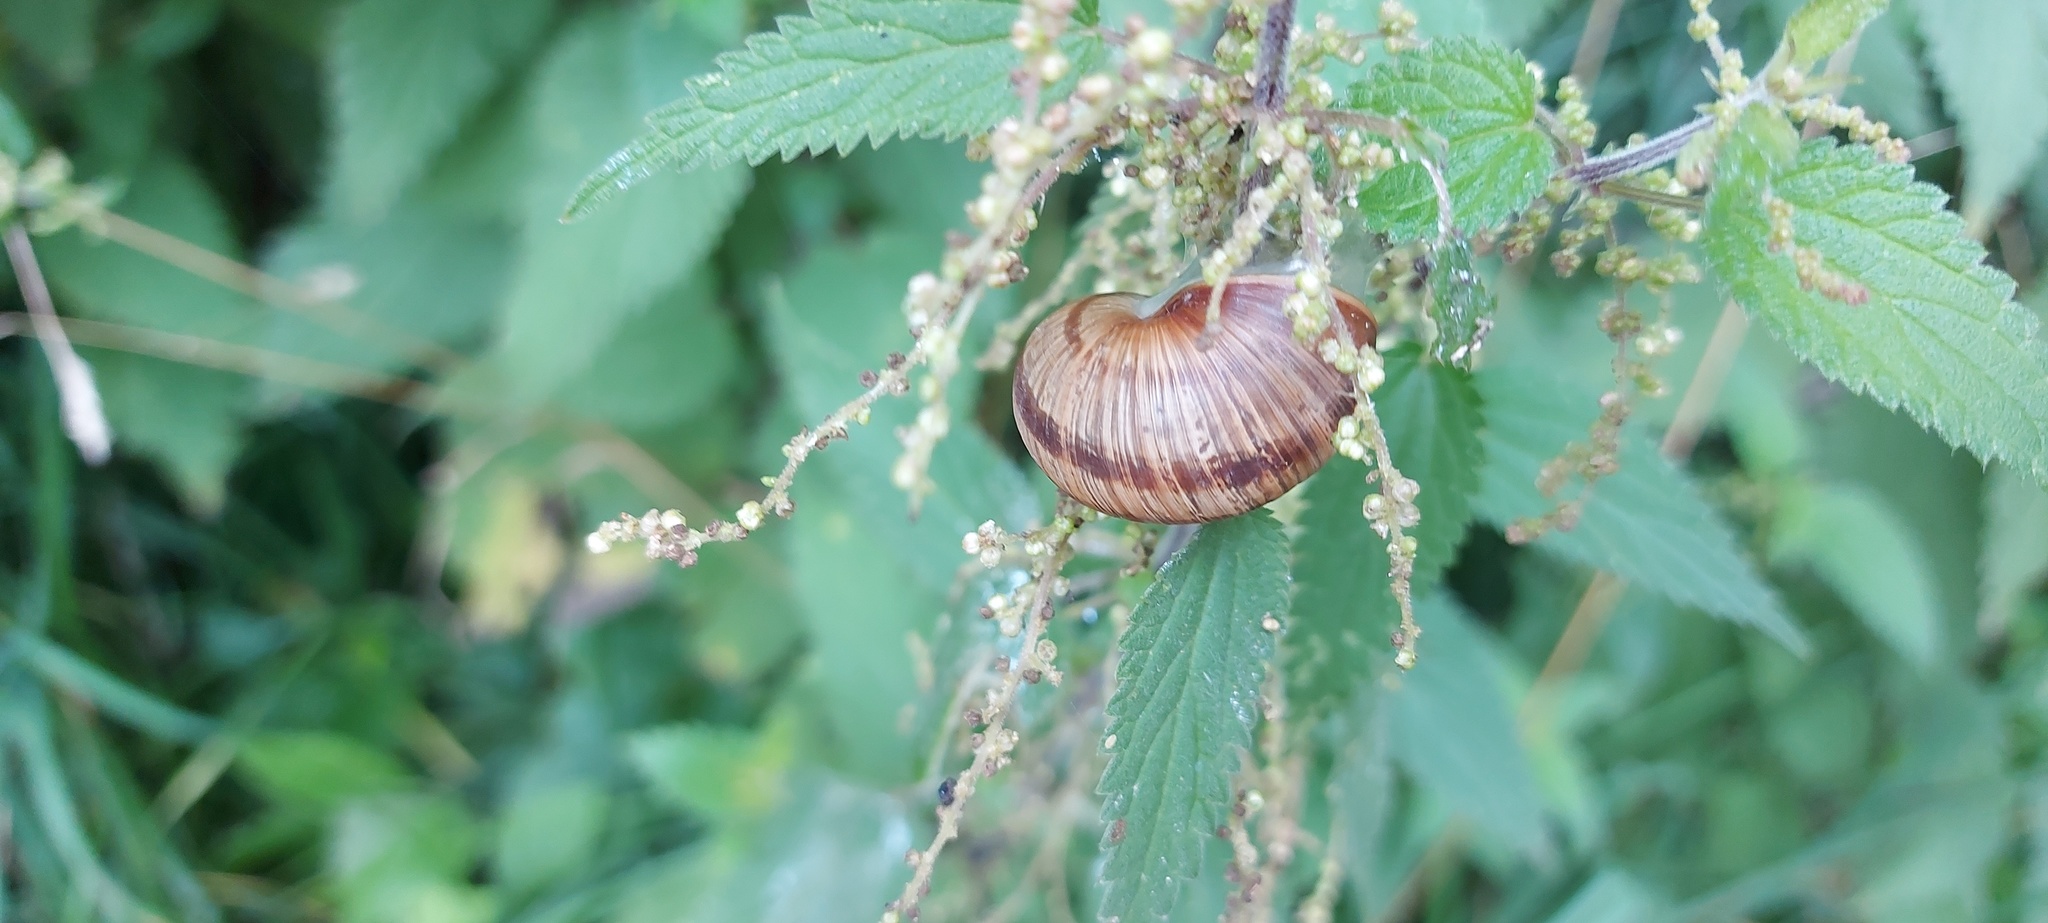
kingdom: Animalia
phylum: Mollusca
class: Gastropoda
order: Stylommatophora
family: Helicidae
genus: Helix
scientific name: Helix pomatia
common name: Roman snail
